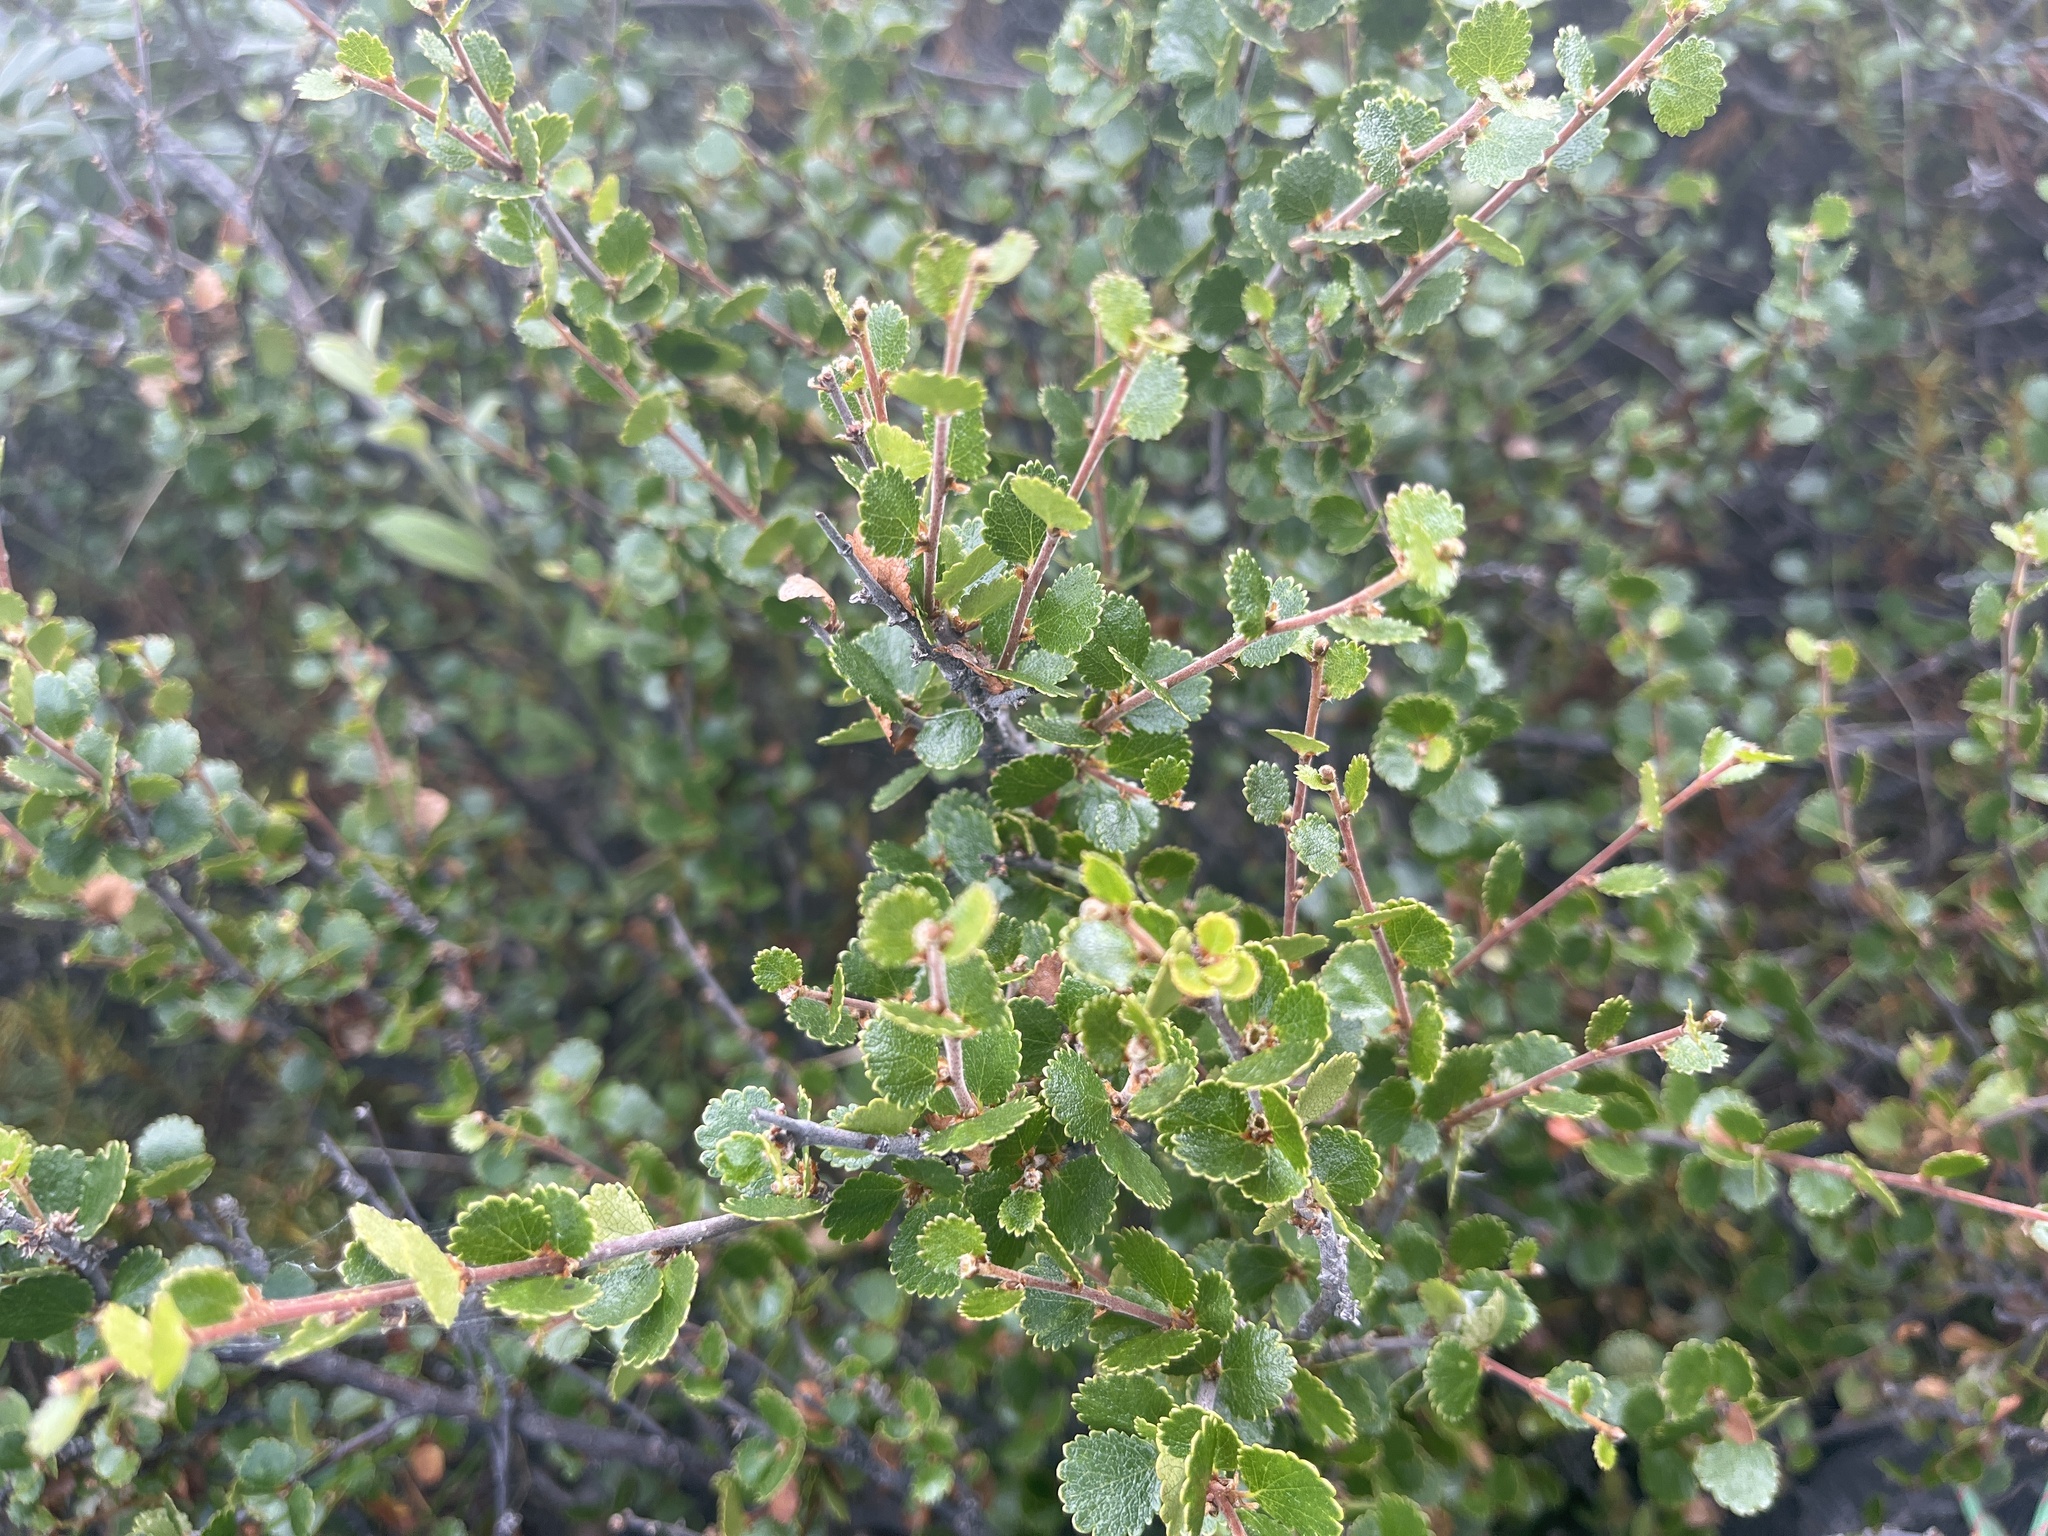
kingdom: Plantae
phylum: Tracheophyta
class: Magnoliopsida
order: Fagales
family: Betulaceae
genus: Betula
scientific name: Betula nana
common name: Arctic dwarf birch
